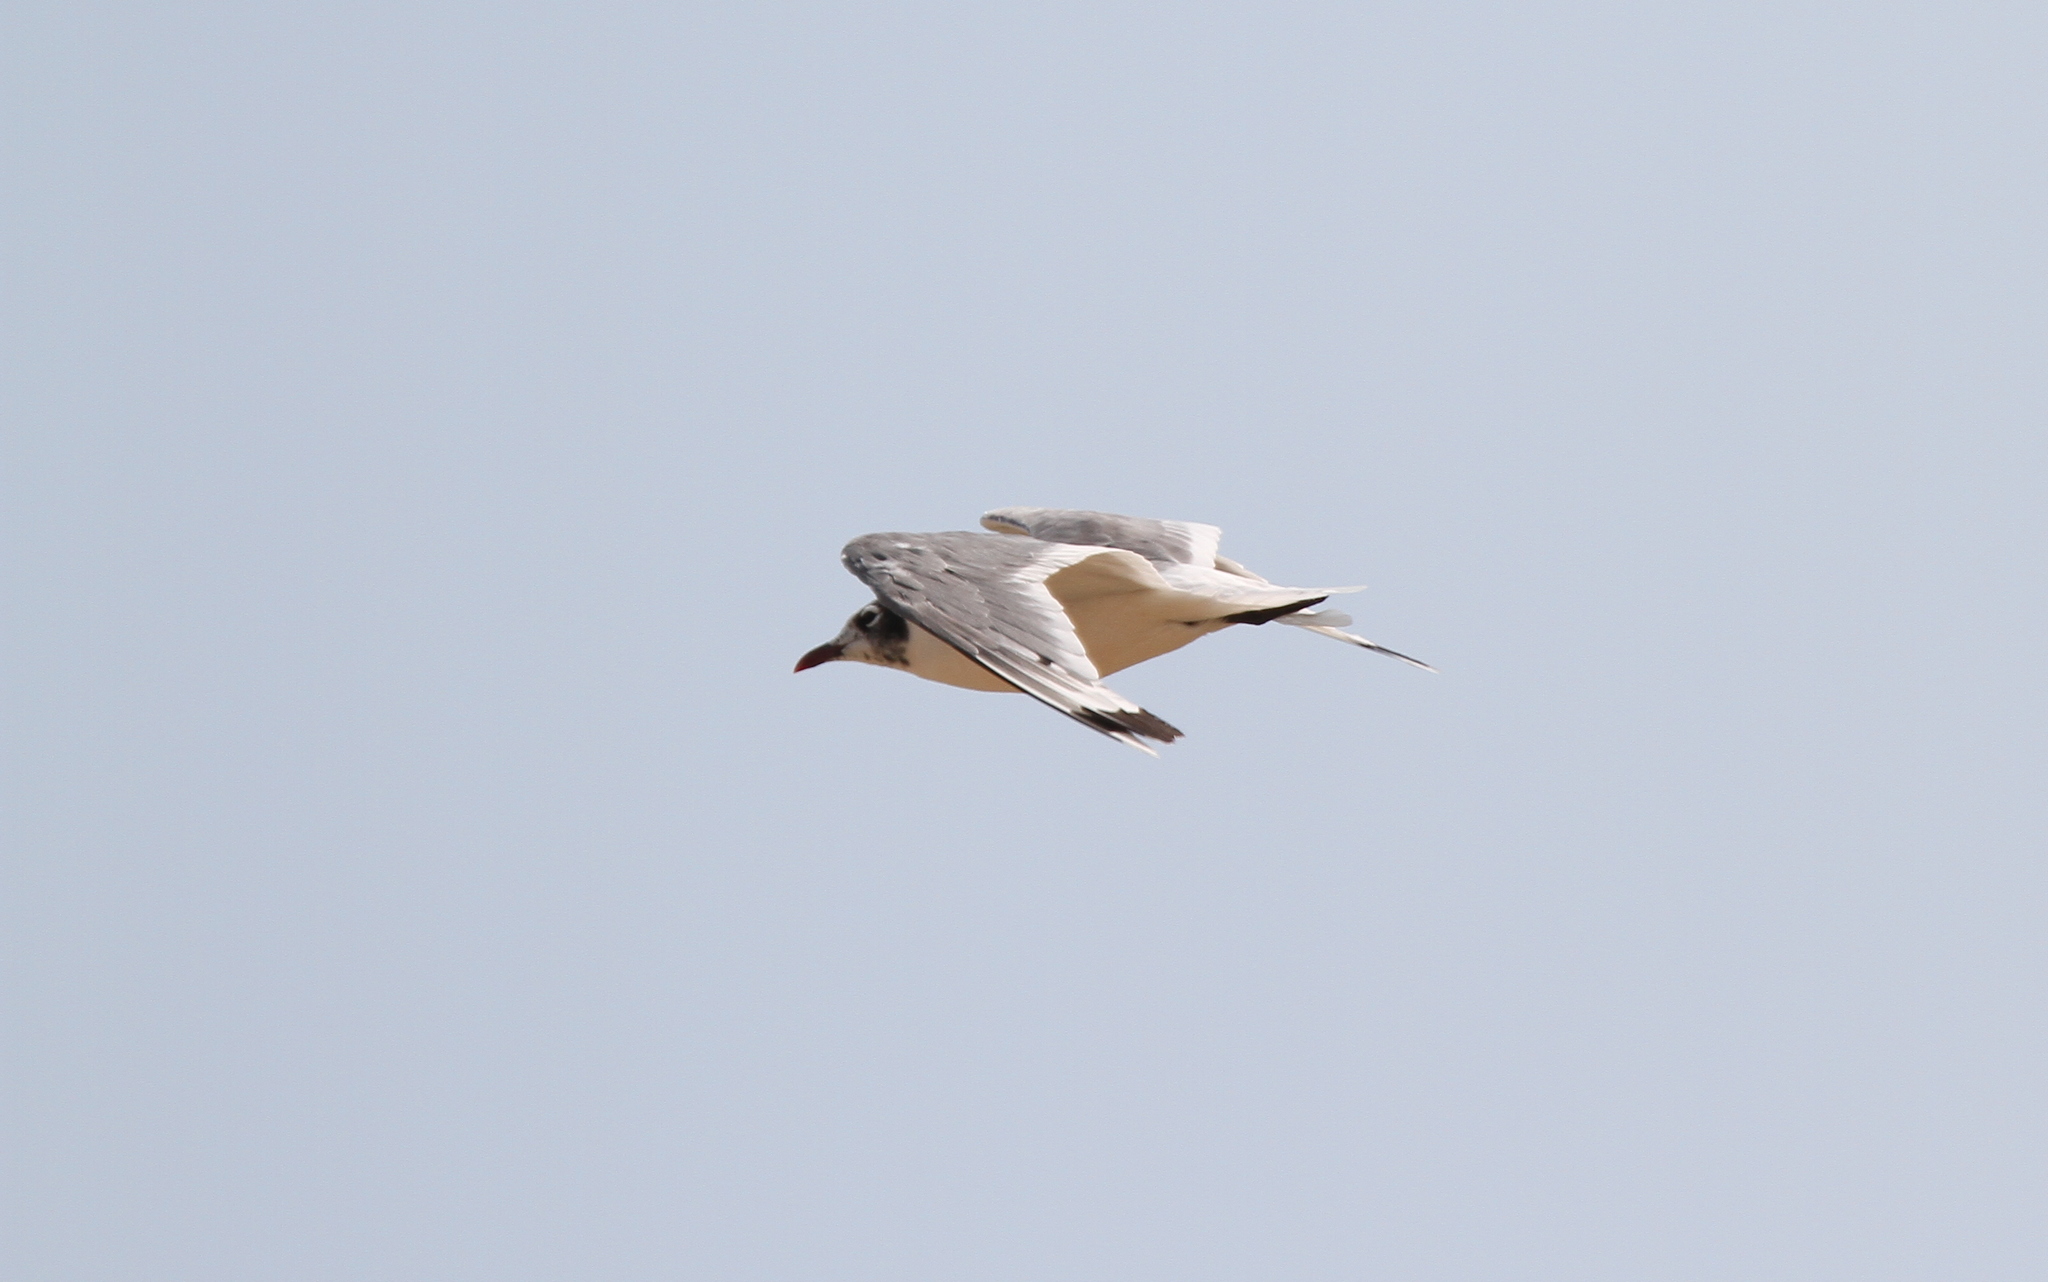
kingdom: Animalia
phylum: Chordata
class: Aves
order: Charadriiformes
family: Laridae
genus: Leucophaeus
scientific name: Leucophaeus pipixcan
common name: Franklin's gull
